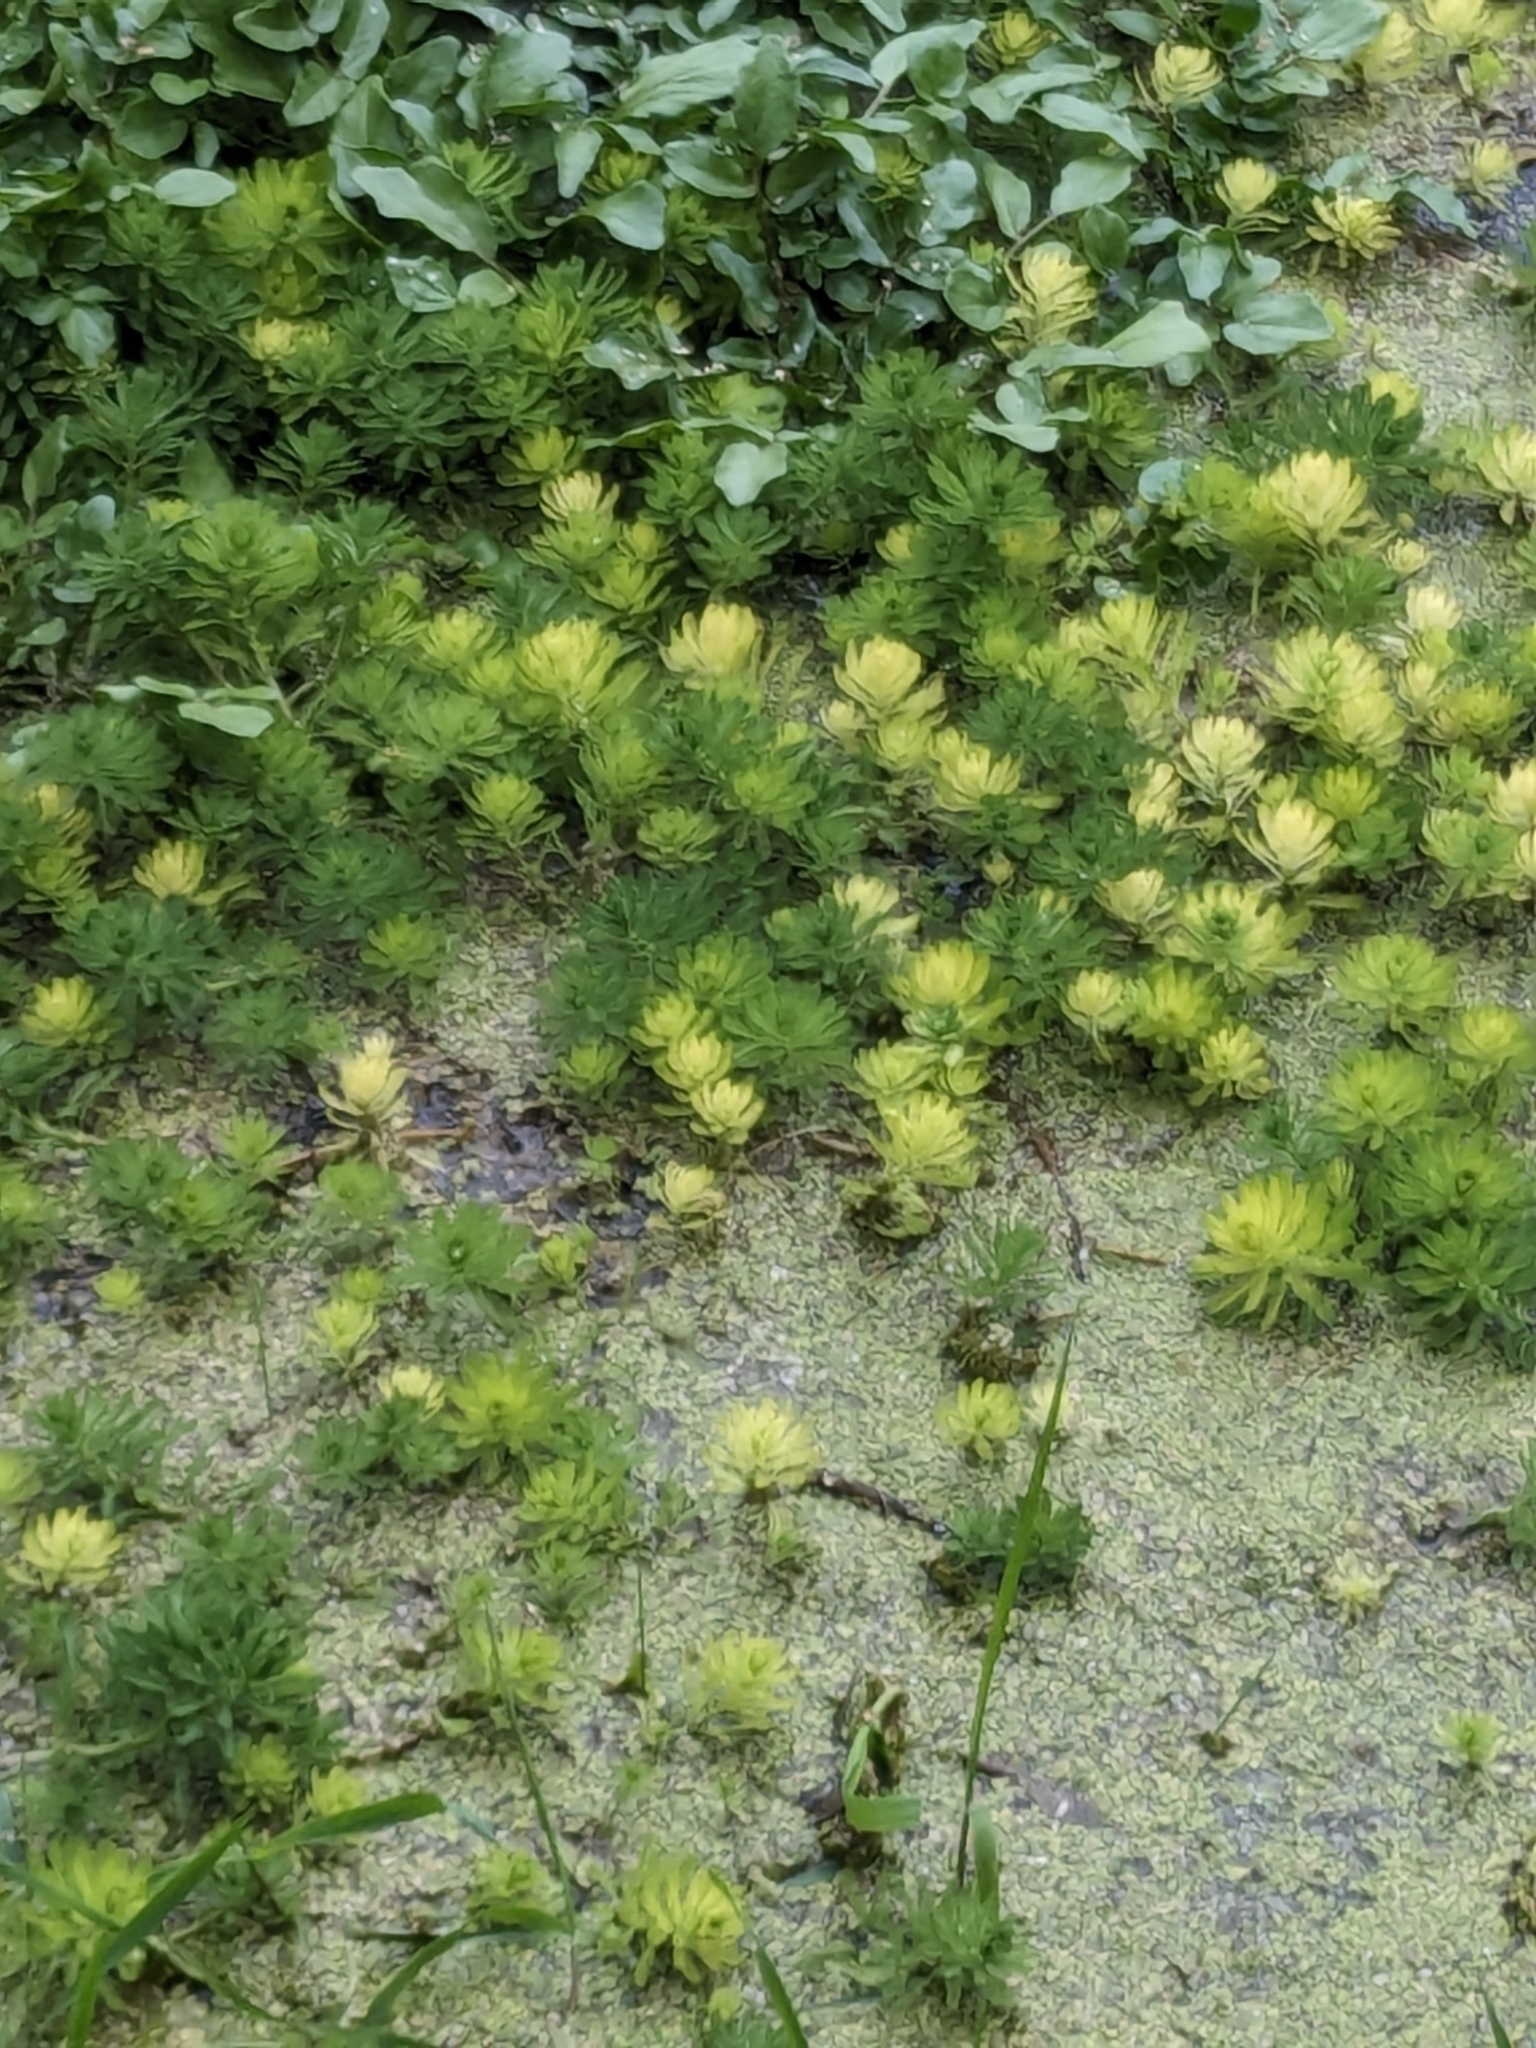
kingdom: Plantae
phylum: Tracheophyta
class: Magnoliopsida
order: Saxifragales
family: Haloragaceae
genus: Myriophyllum
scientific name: Myriophyllum aquaticum
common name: Parrot's feather
